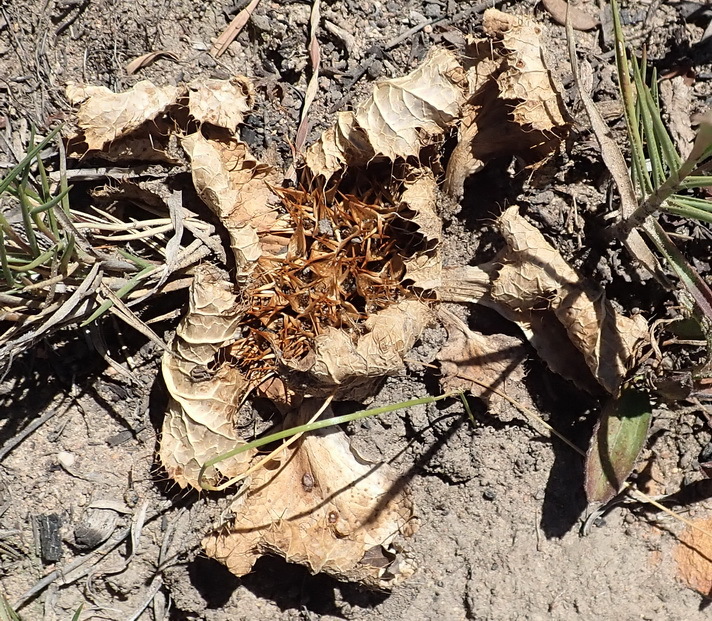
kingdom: Plantae
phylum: Tracheophyta
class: Magnoliopsida
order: Apiales
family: Apiaceae
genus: Arctopus
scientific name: Arctopus echinatus
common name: Platdoring
